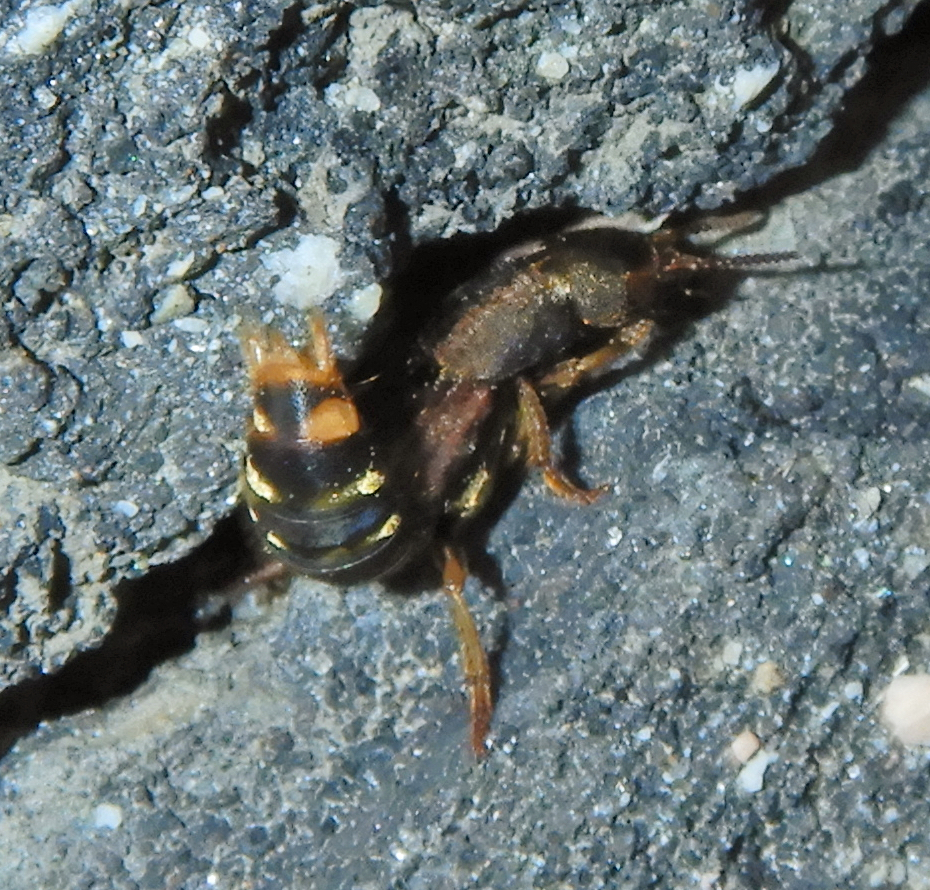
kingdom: Animalia
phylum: Arthropoda
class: Insecta
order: Coleoptera
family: Staphylinidae
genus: Platydracus
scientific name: Platydracus maculosus
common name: Brown rove beetle
